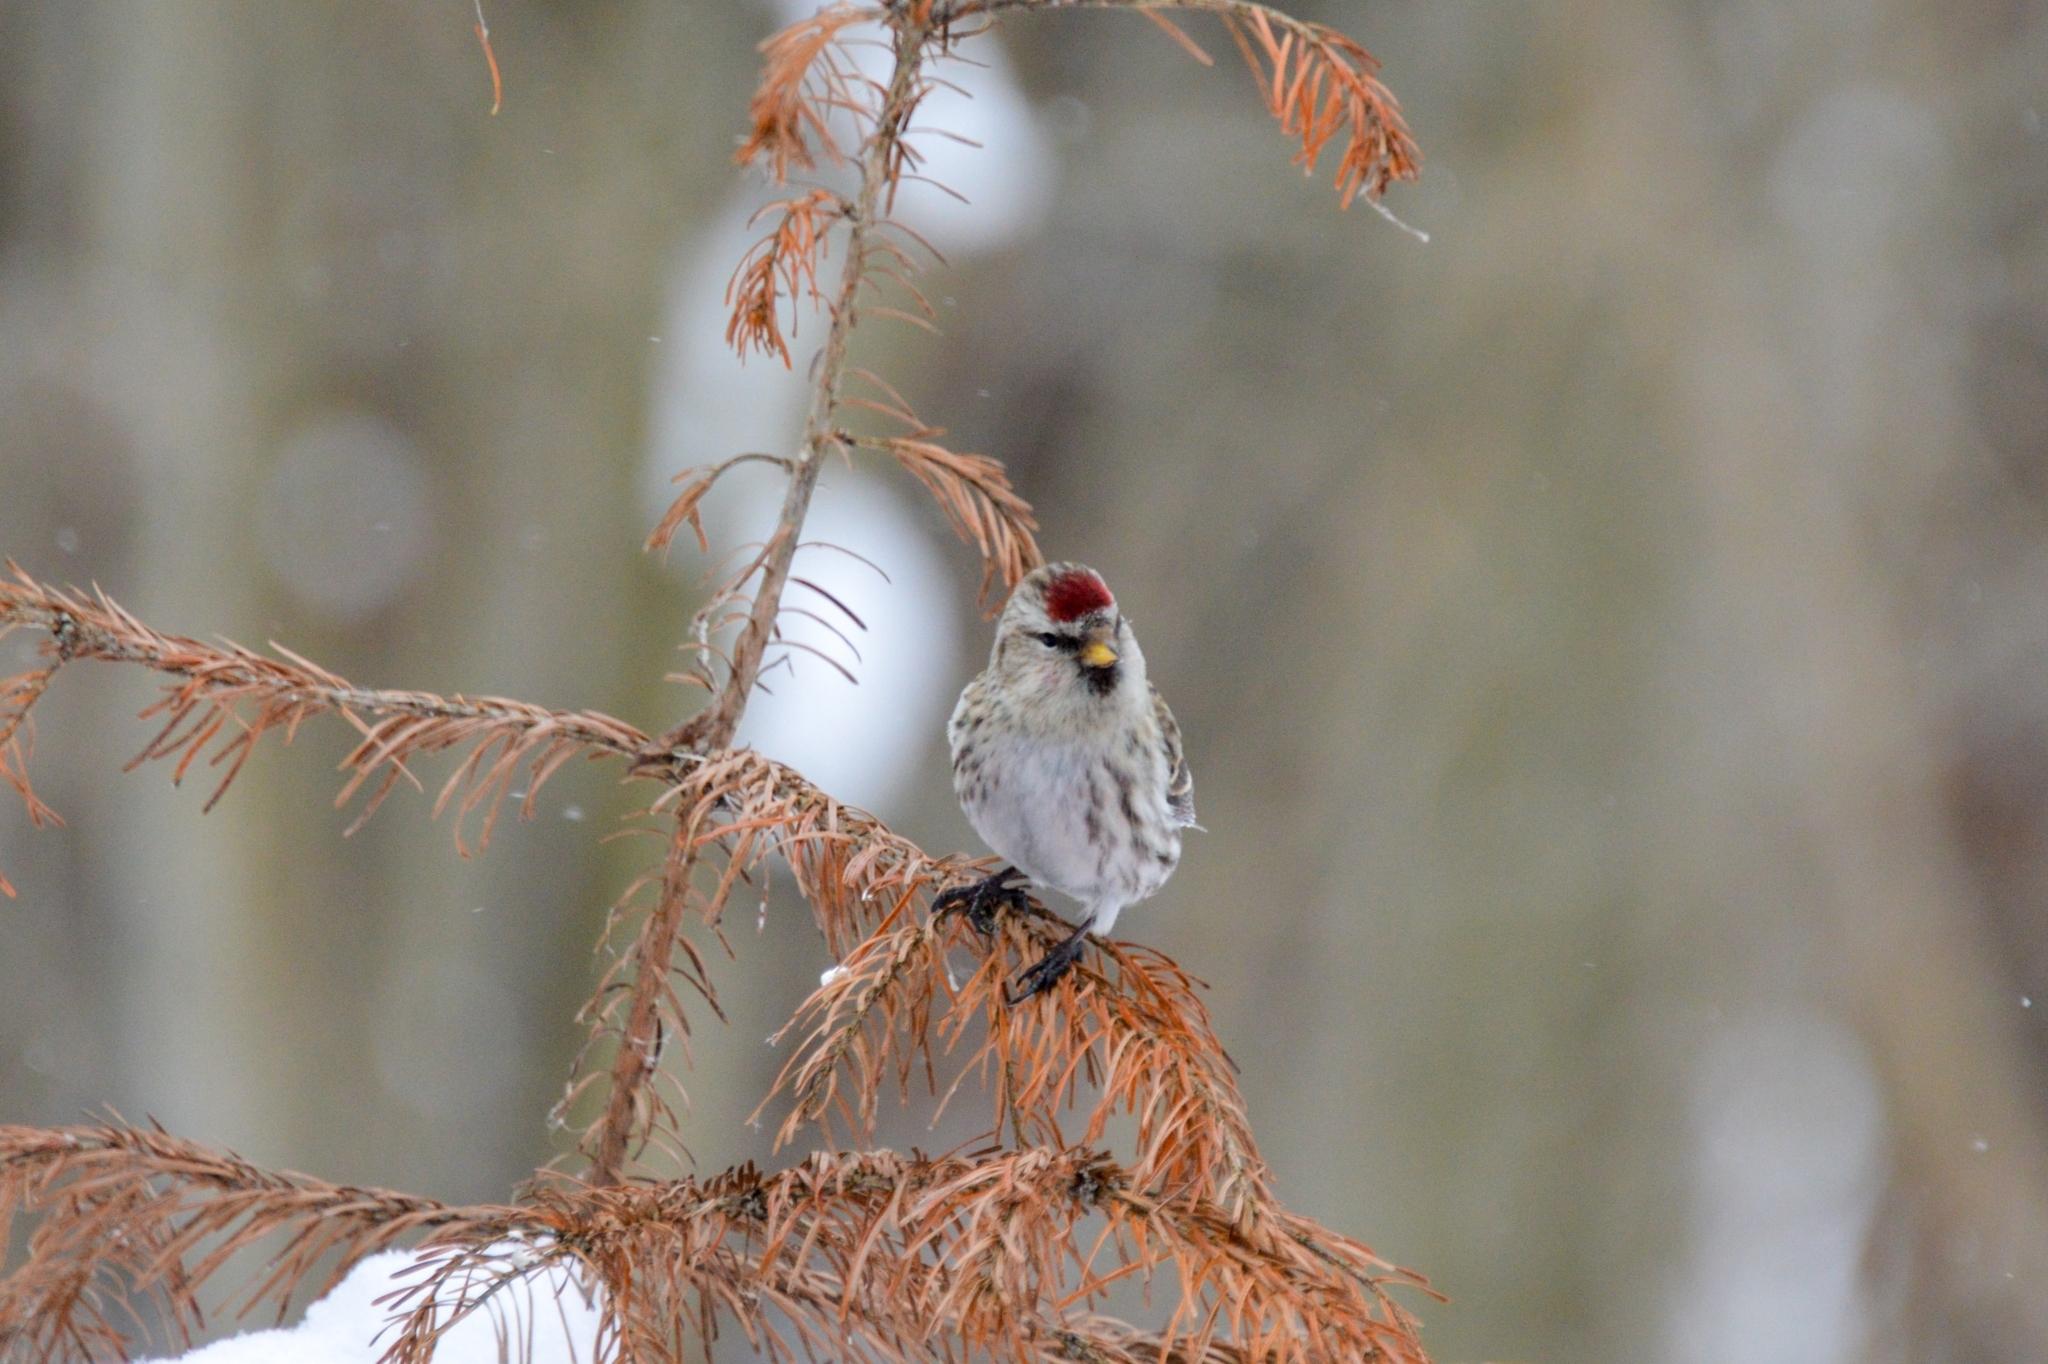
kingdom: Animalia
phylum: Chordata
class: Aves
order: Passeriformes
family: Fringillidae
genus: Acanthis
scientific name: Acanthis flammea
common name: Common redpoll
